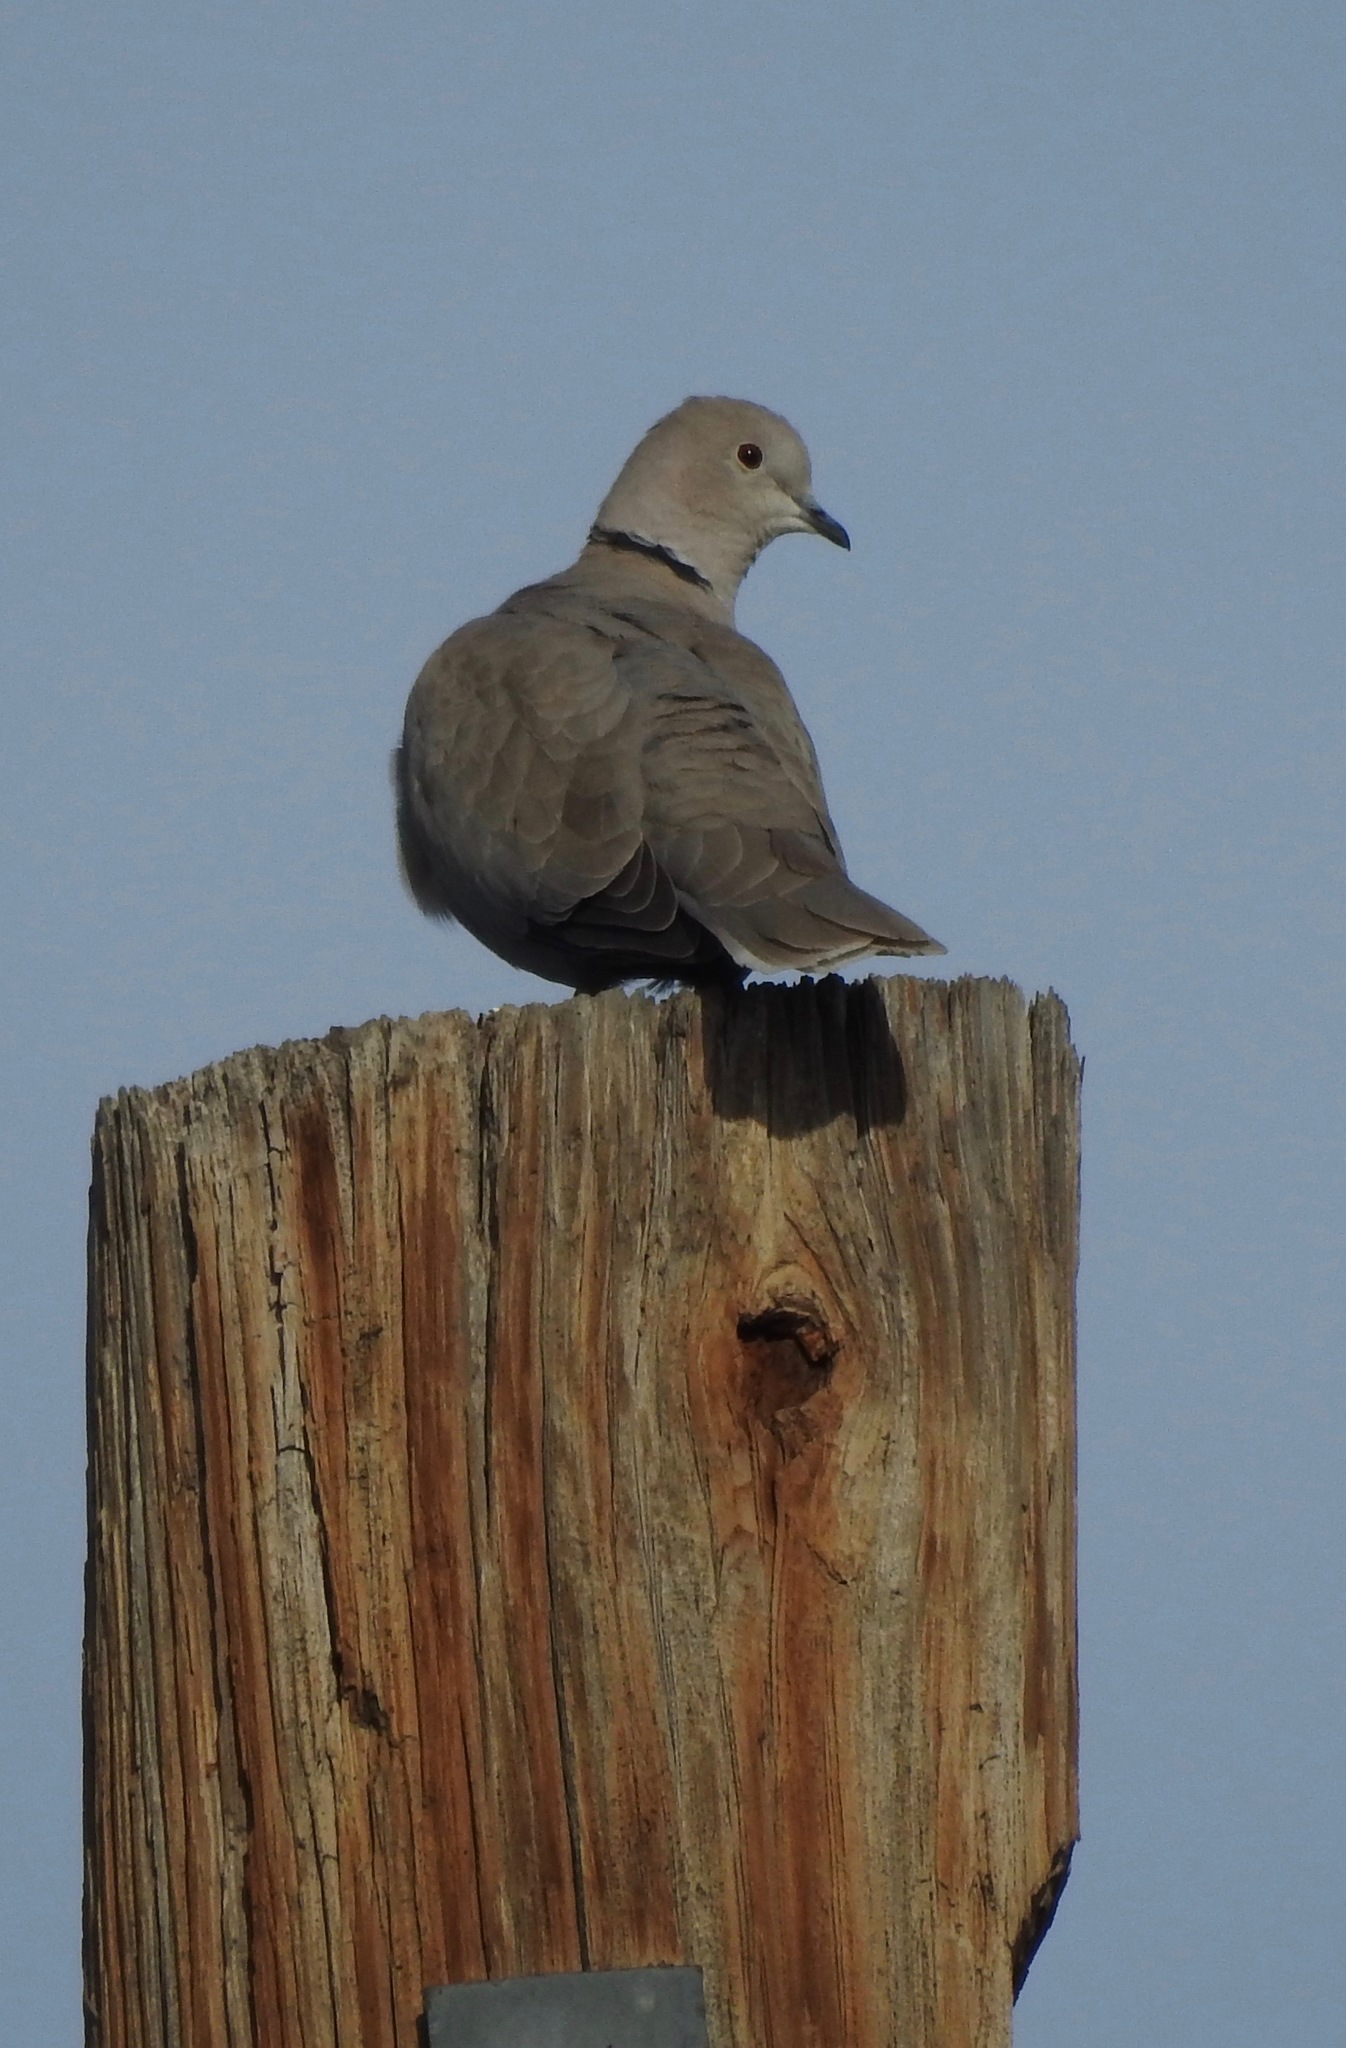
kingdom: Animalia
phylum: Chordata
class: Aves
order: Columbiformes
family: Columbidae
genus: Streptopelia
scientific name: Streptopelia decaocto
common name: Eurasian collared dove
